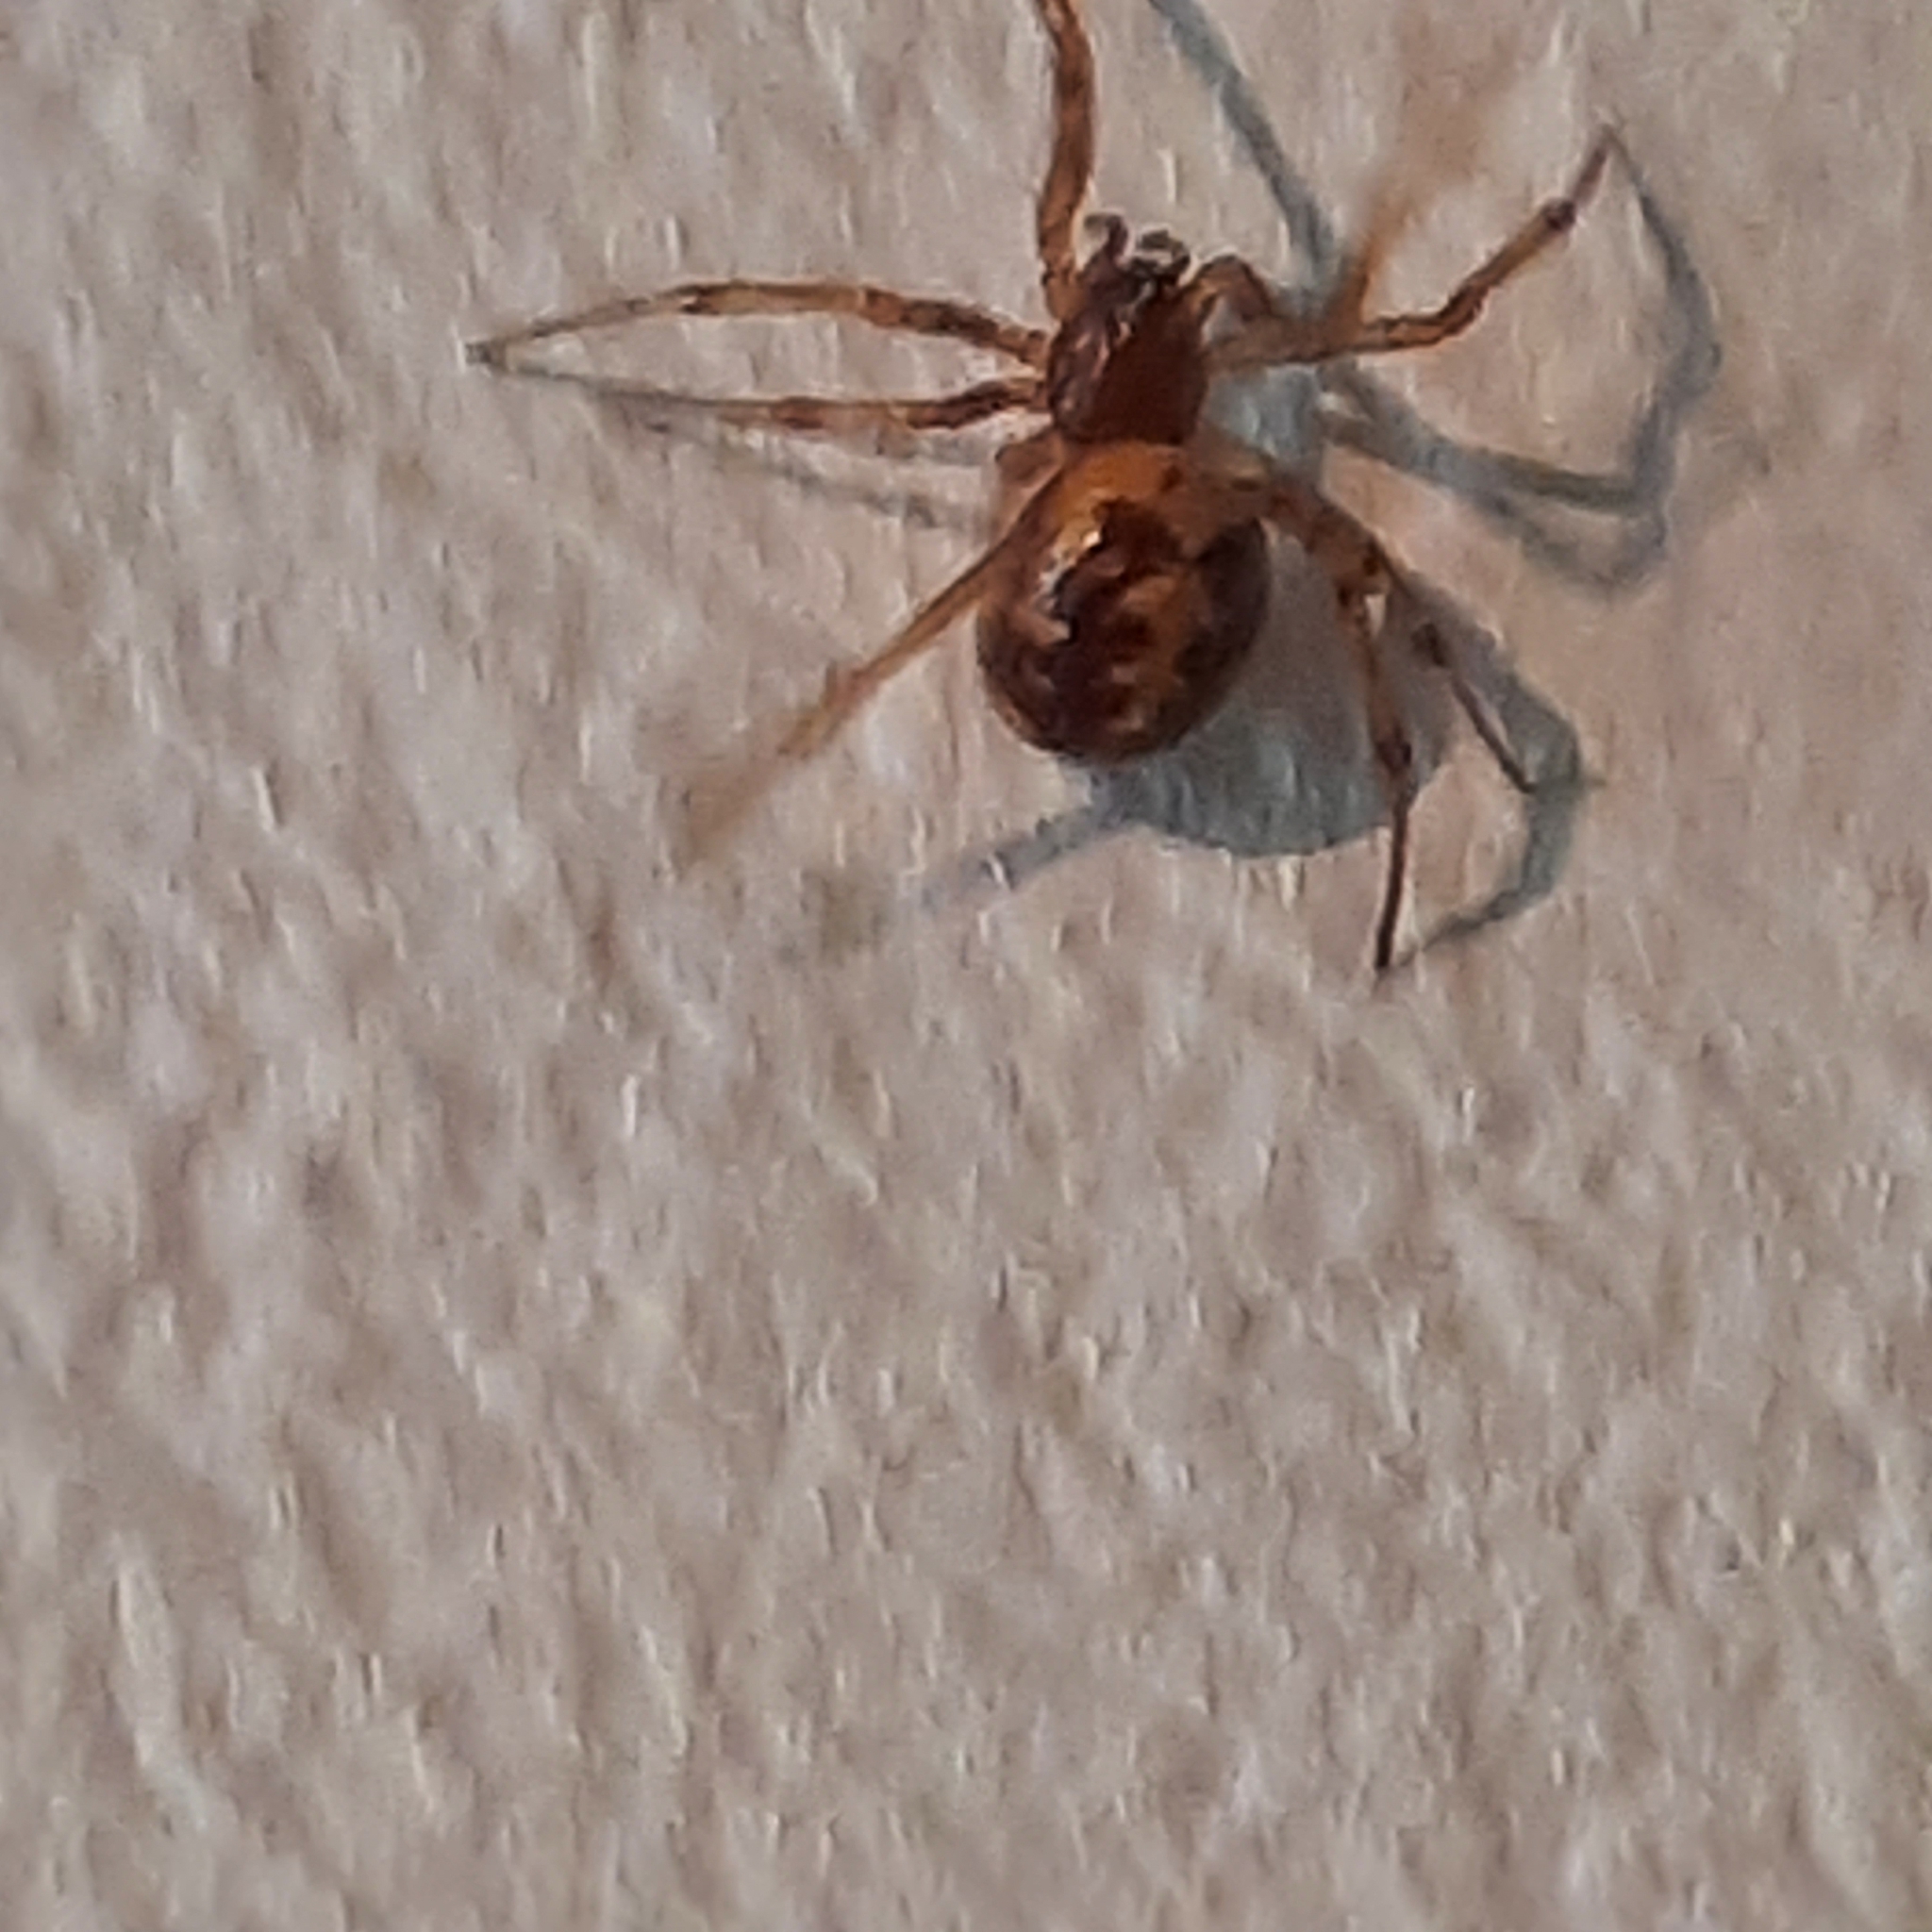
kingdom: Animalia
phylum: Arthropoda
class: Arachnida
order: Araneae
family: Theridiidae
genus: Steatoda
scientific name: Steatoda triangulosa
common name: Triangulate bud spider
